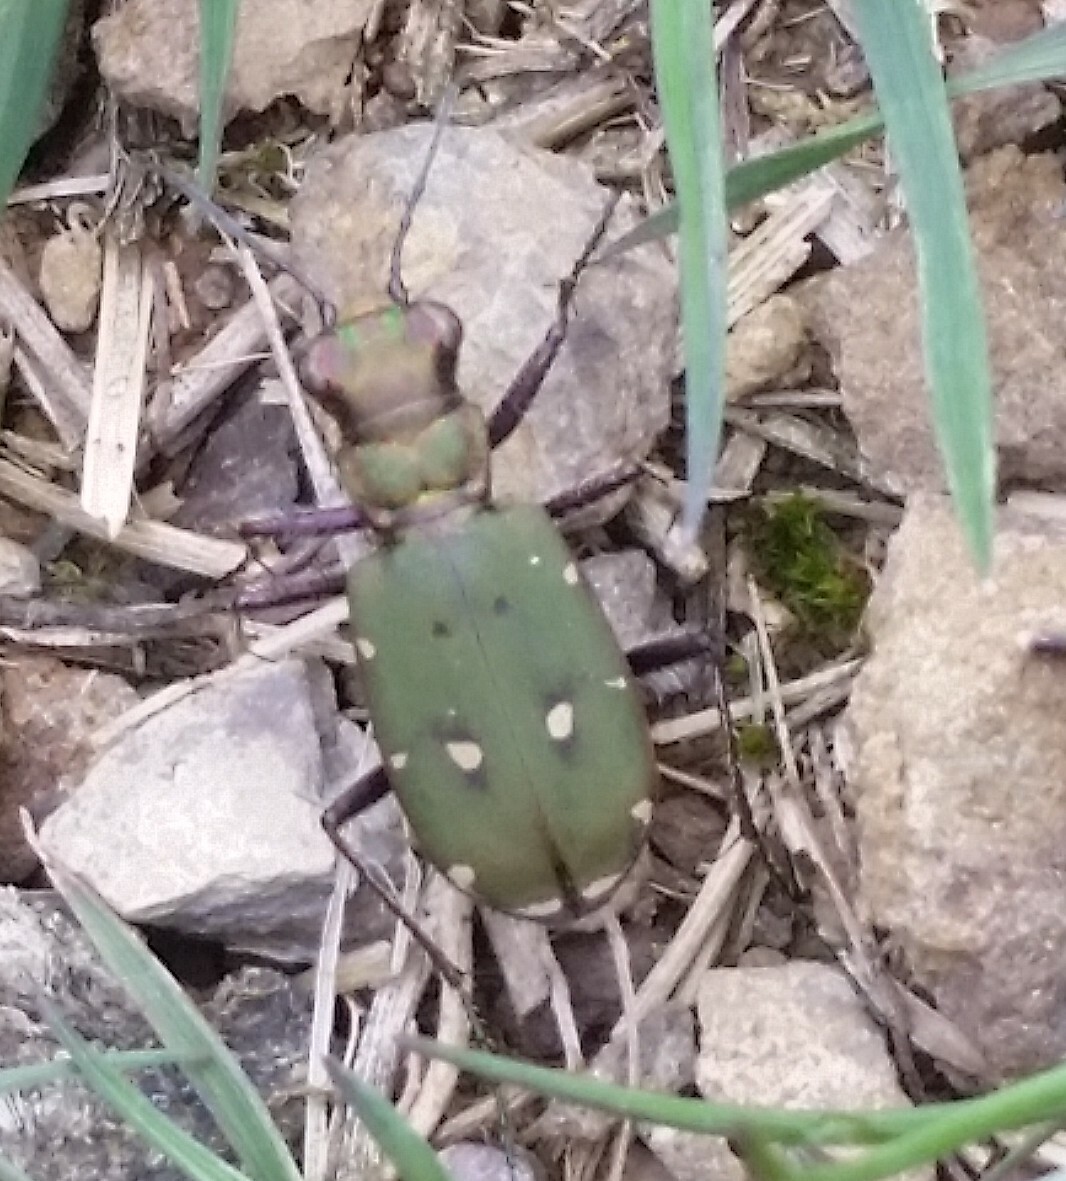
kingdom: Animalia
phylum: Arthropoda
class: Insecta
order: Coleoptera
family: Carabidae
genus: Cicindela
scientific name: Cicindela campestris
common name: Common tiger beetle
